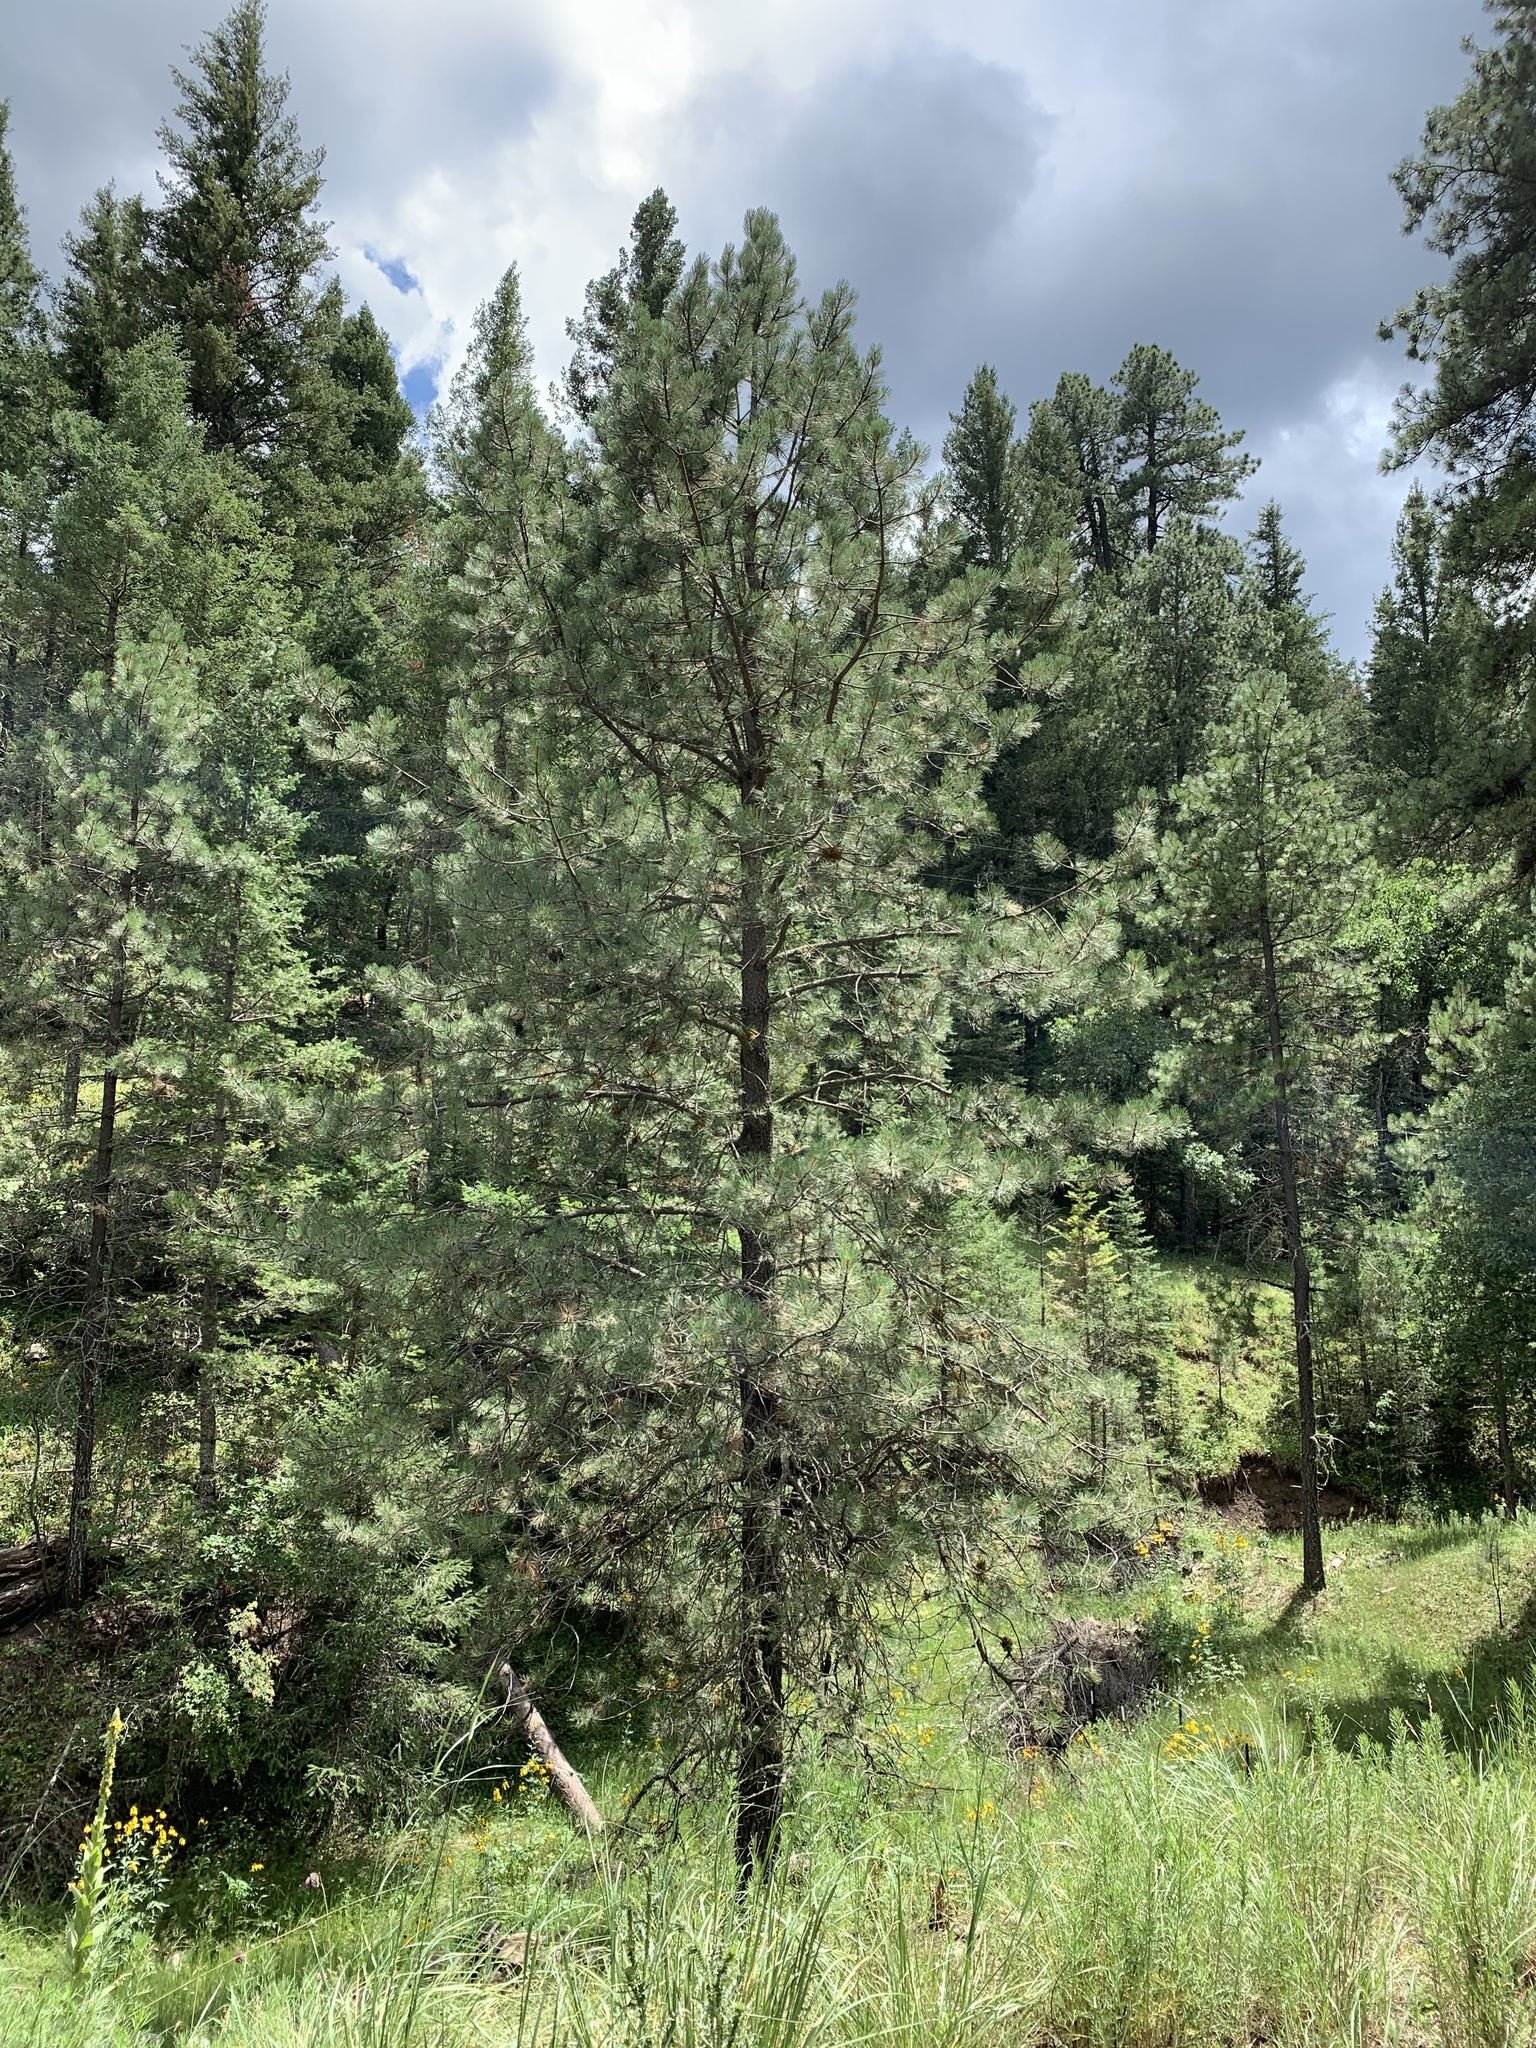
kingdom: Plantae
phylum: Tracheophyta
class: Pinopsida
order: Pinales
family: Pinaceae
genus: Pinus
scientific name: Pinus ponderosa
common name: Western yellow-pine
